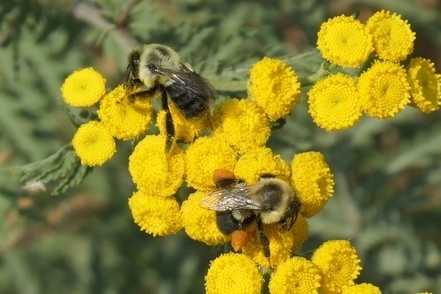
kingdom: Animalia
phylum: Arthropoda
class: Insecta
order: Hymenoptera
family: Apidae
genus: Bombus
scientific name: Bombus impatiens
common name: Common eastern bumble bee
